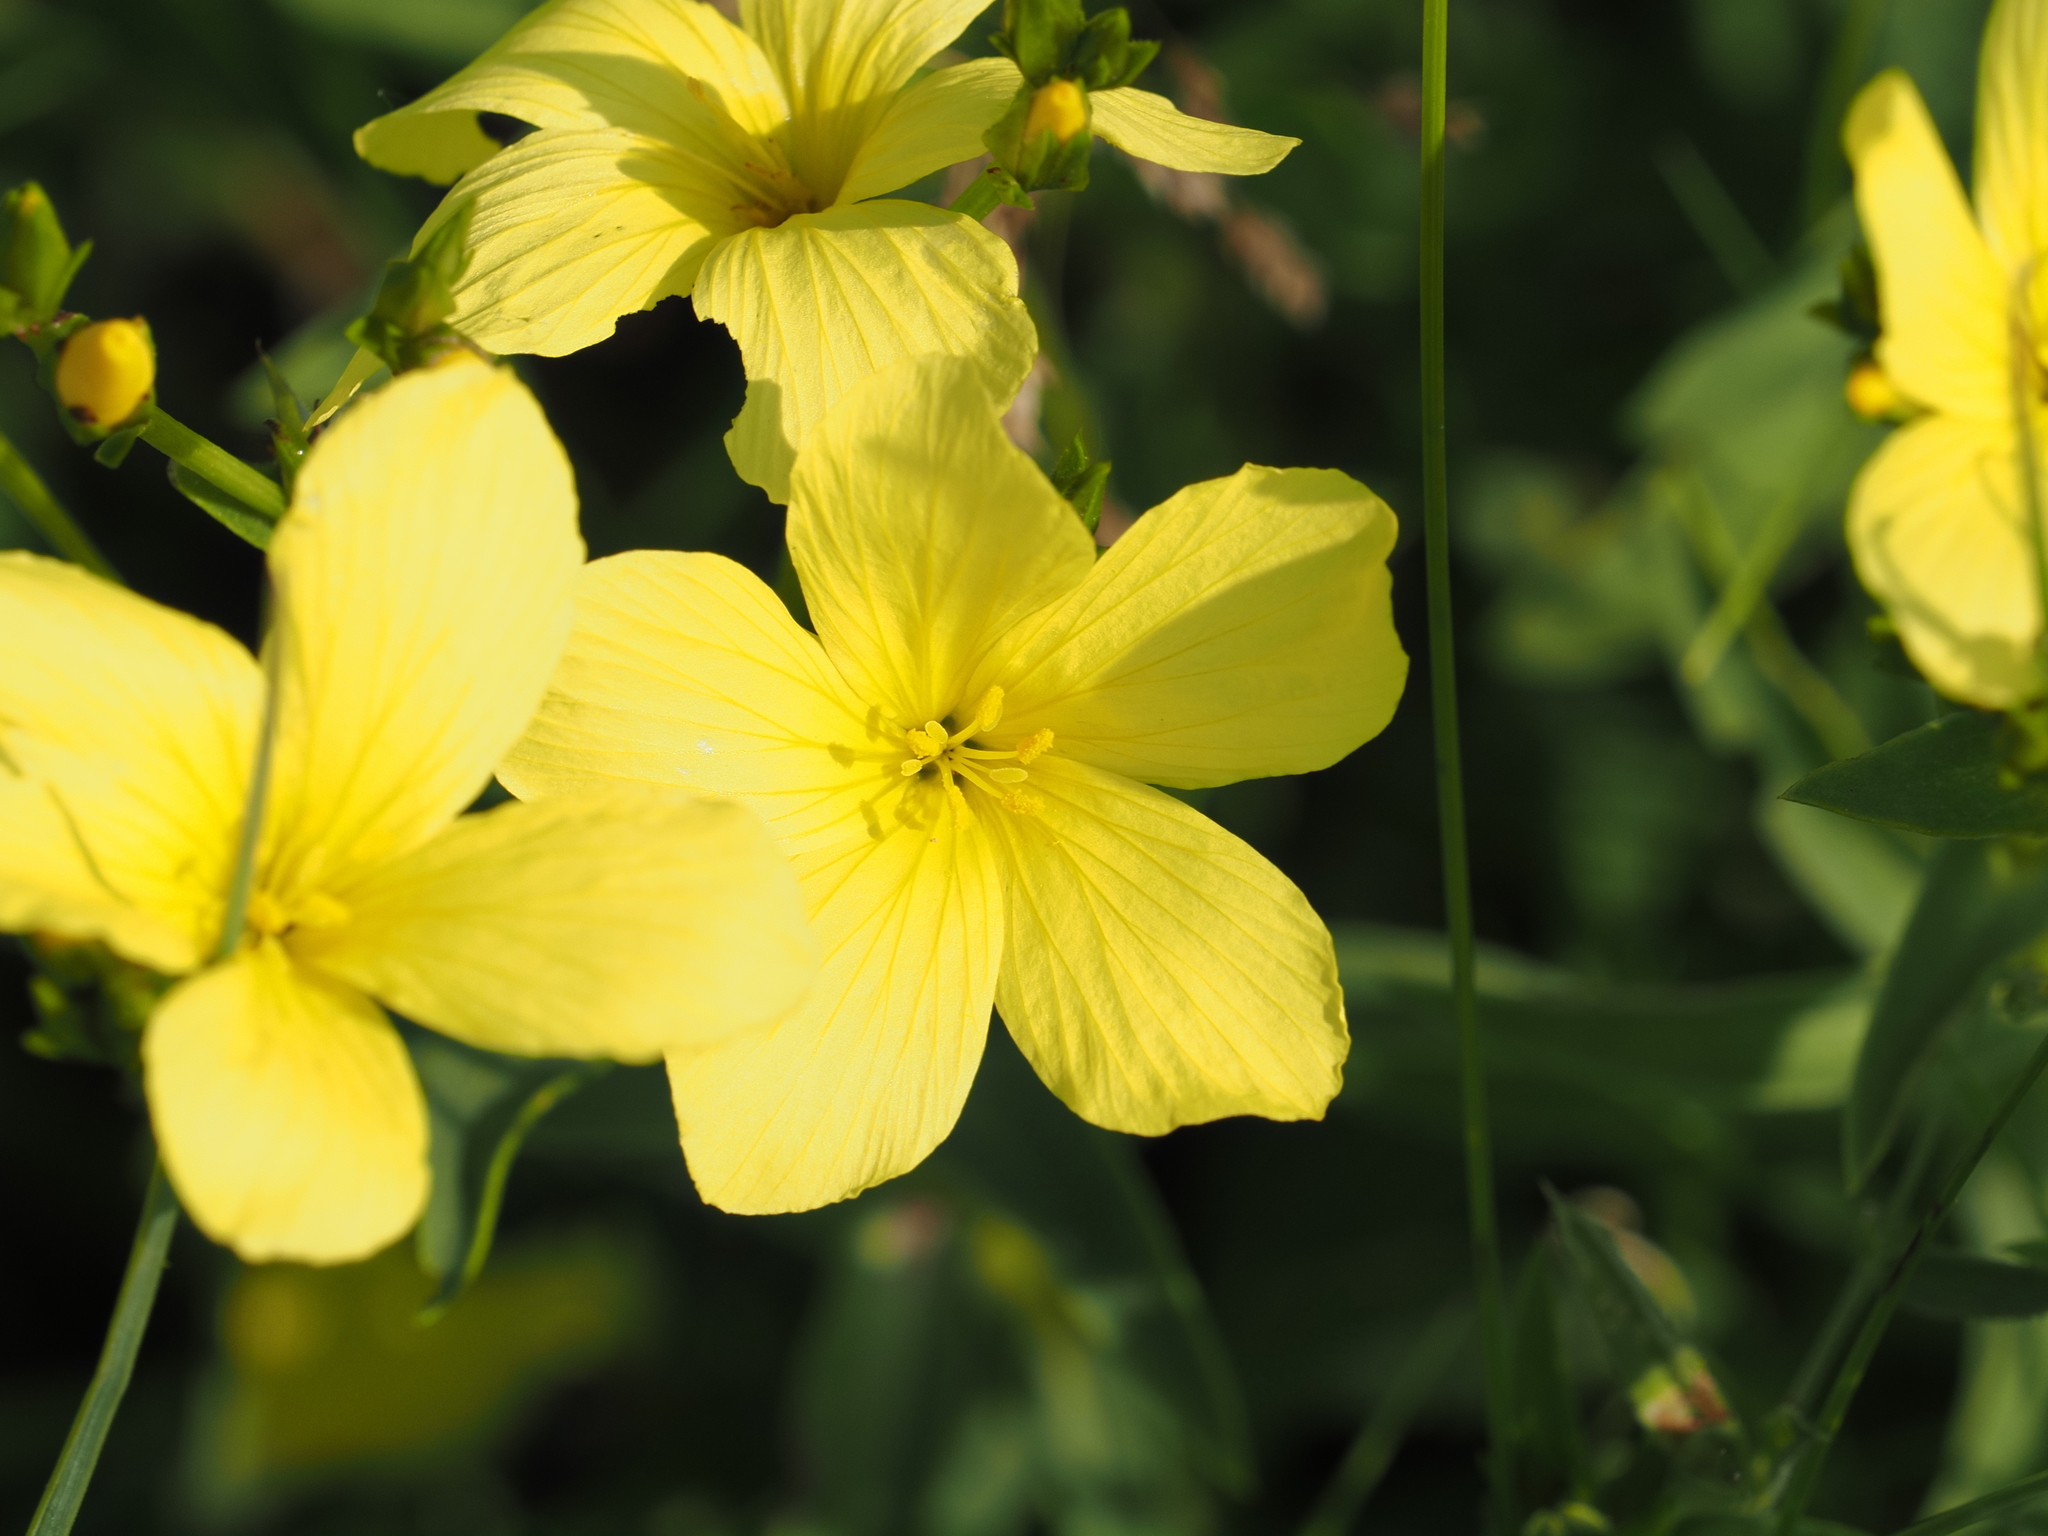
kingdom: Plantae
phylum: Tracheophyta
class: Magnoliopsida
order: Malpighiales
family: Linaceae
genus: Linum
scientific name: Linum flavum
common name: Yellow flax
